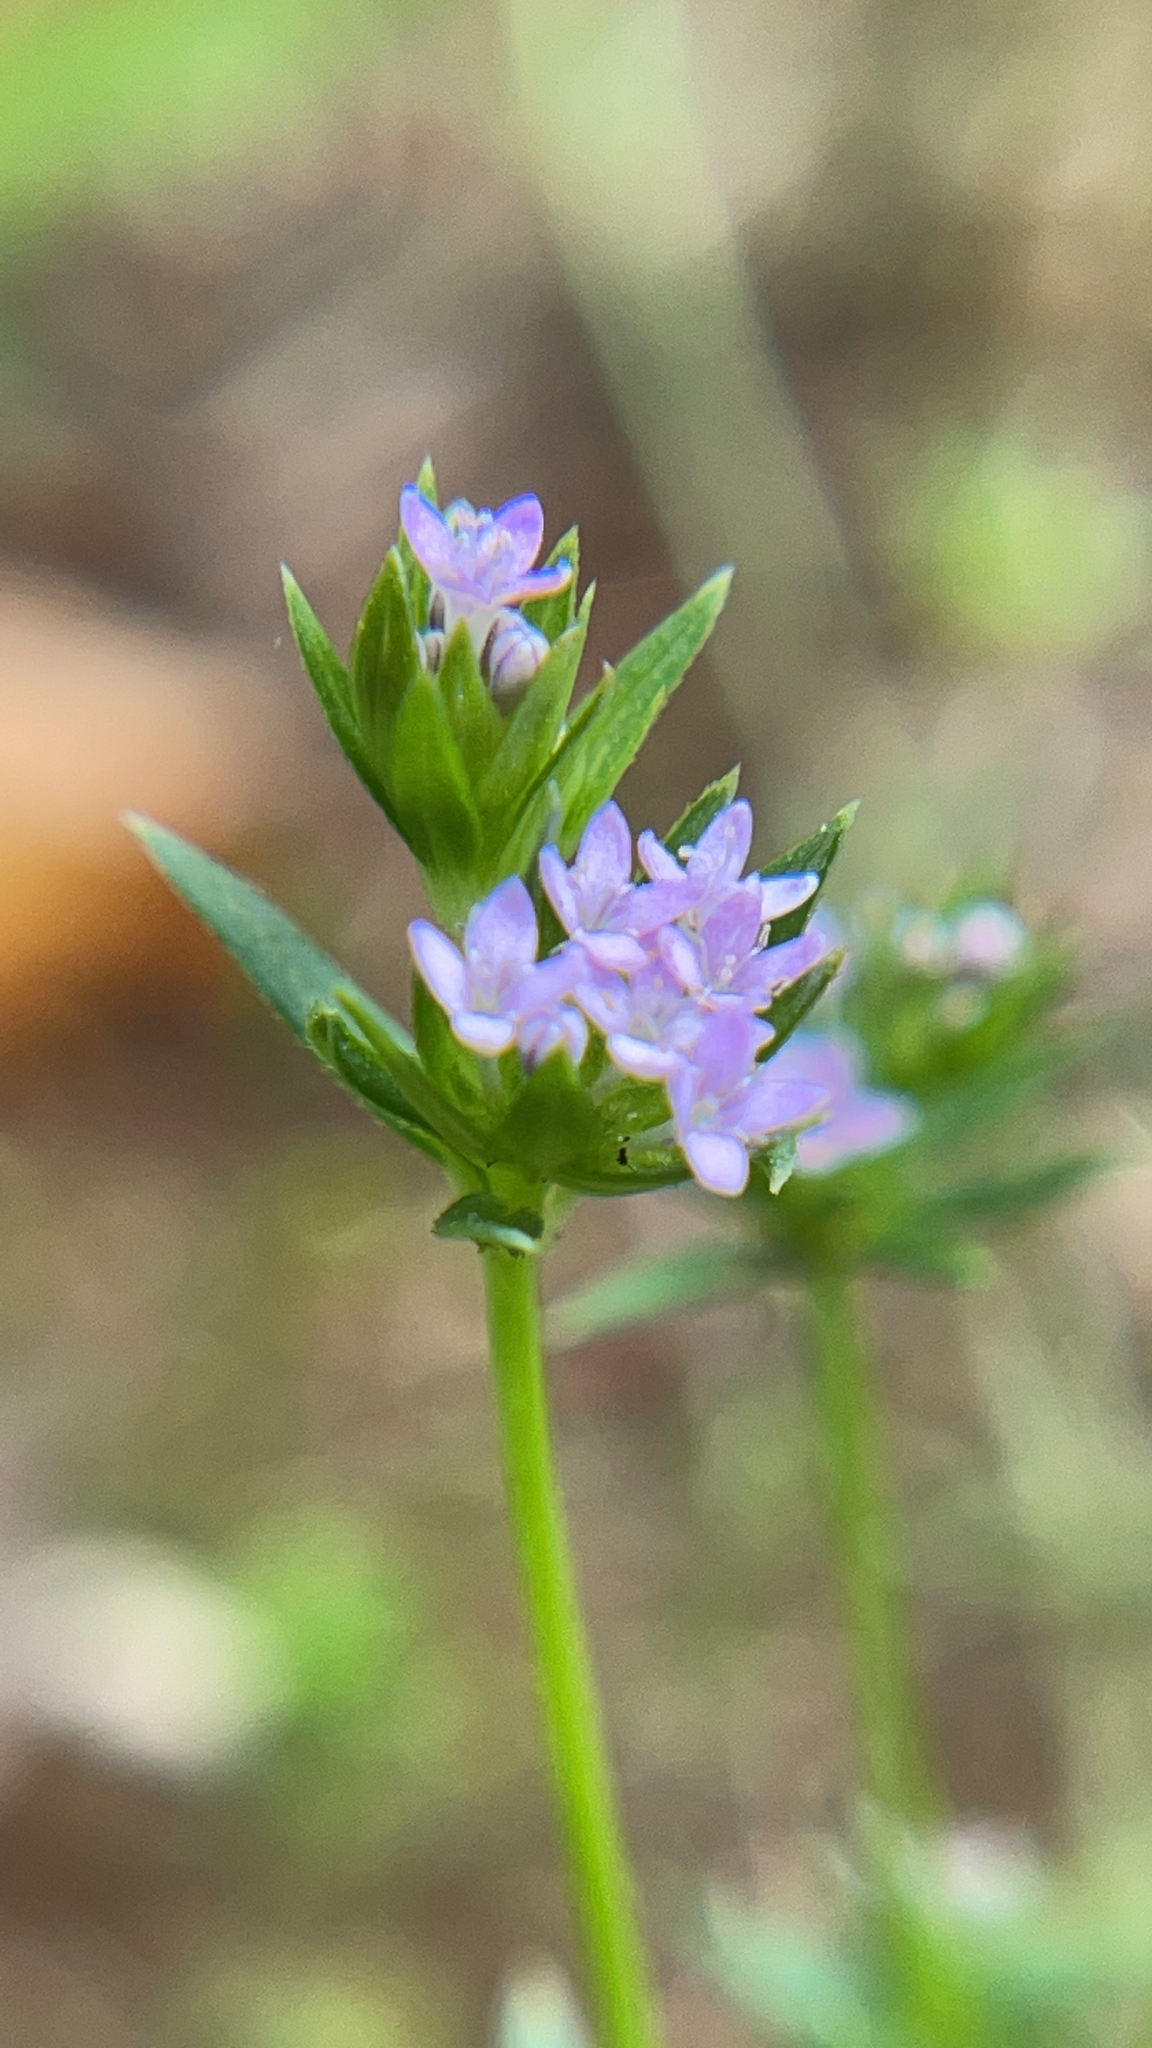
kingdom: Plantae
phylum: Tracheophyta
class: Magnoliopsida
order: Gentianales
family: Rubiaceae
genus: Sherardia
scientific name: Sherardia arvensis
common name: Field madder
